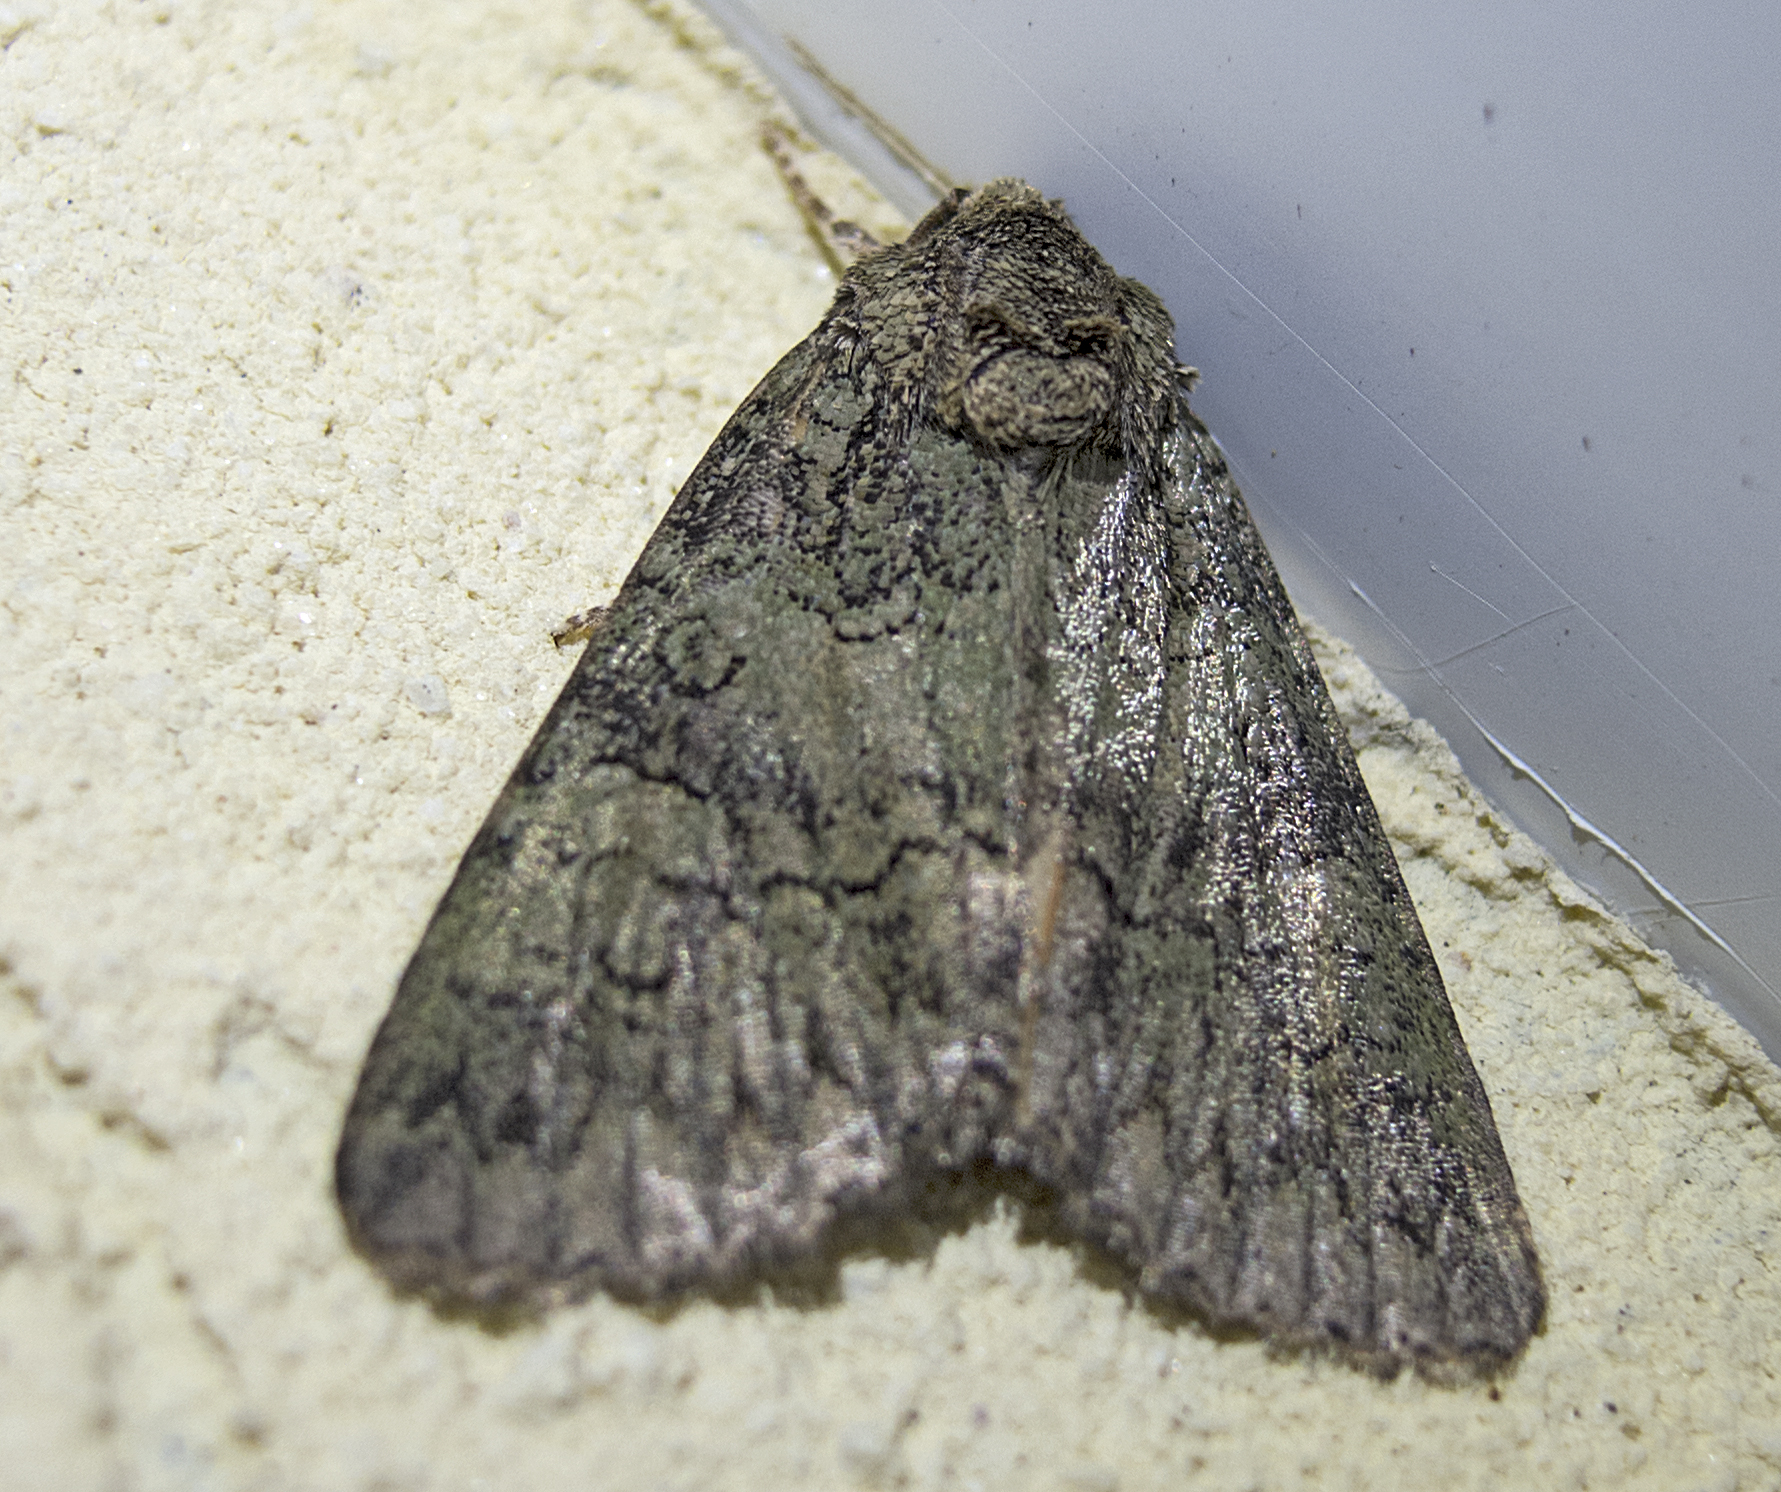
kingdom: Animalia
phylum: Arthropoda
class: Insecta
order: Lepidoptera
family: Noctuidae
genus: Polyphaenis
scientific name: Polyphaenis sericata
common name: Guernsey underwing
